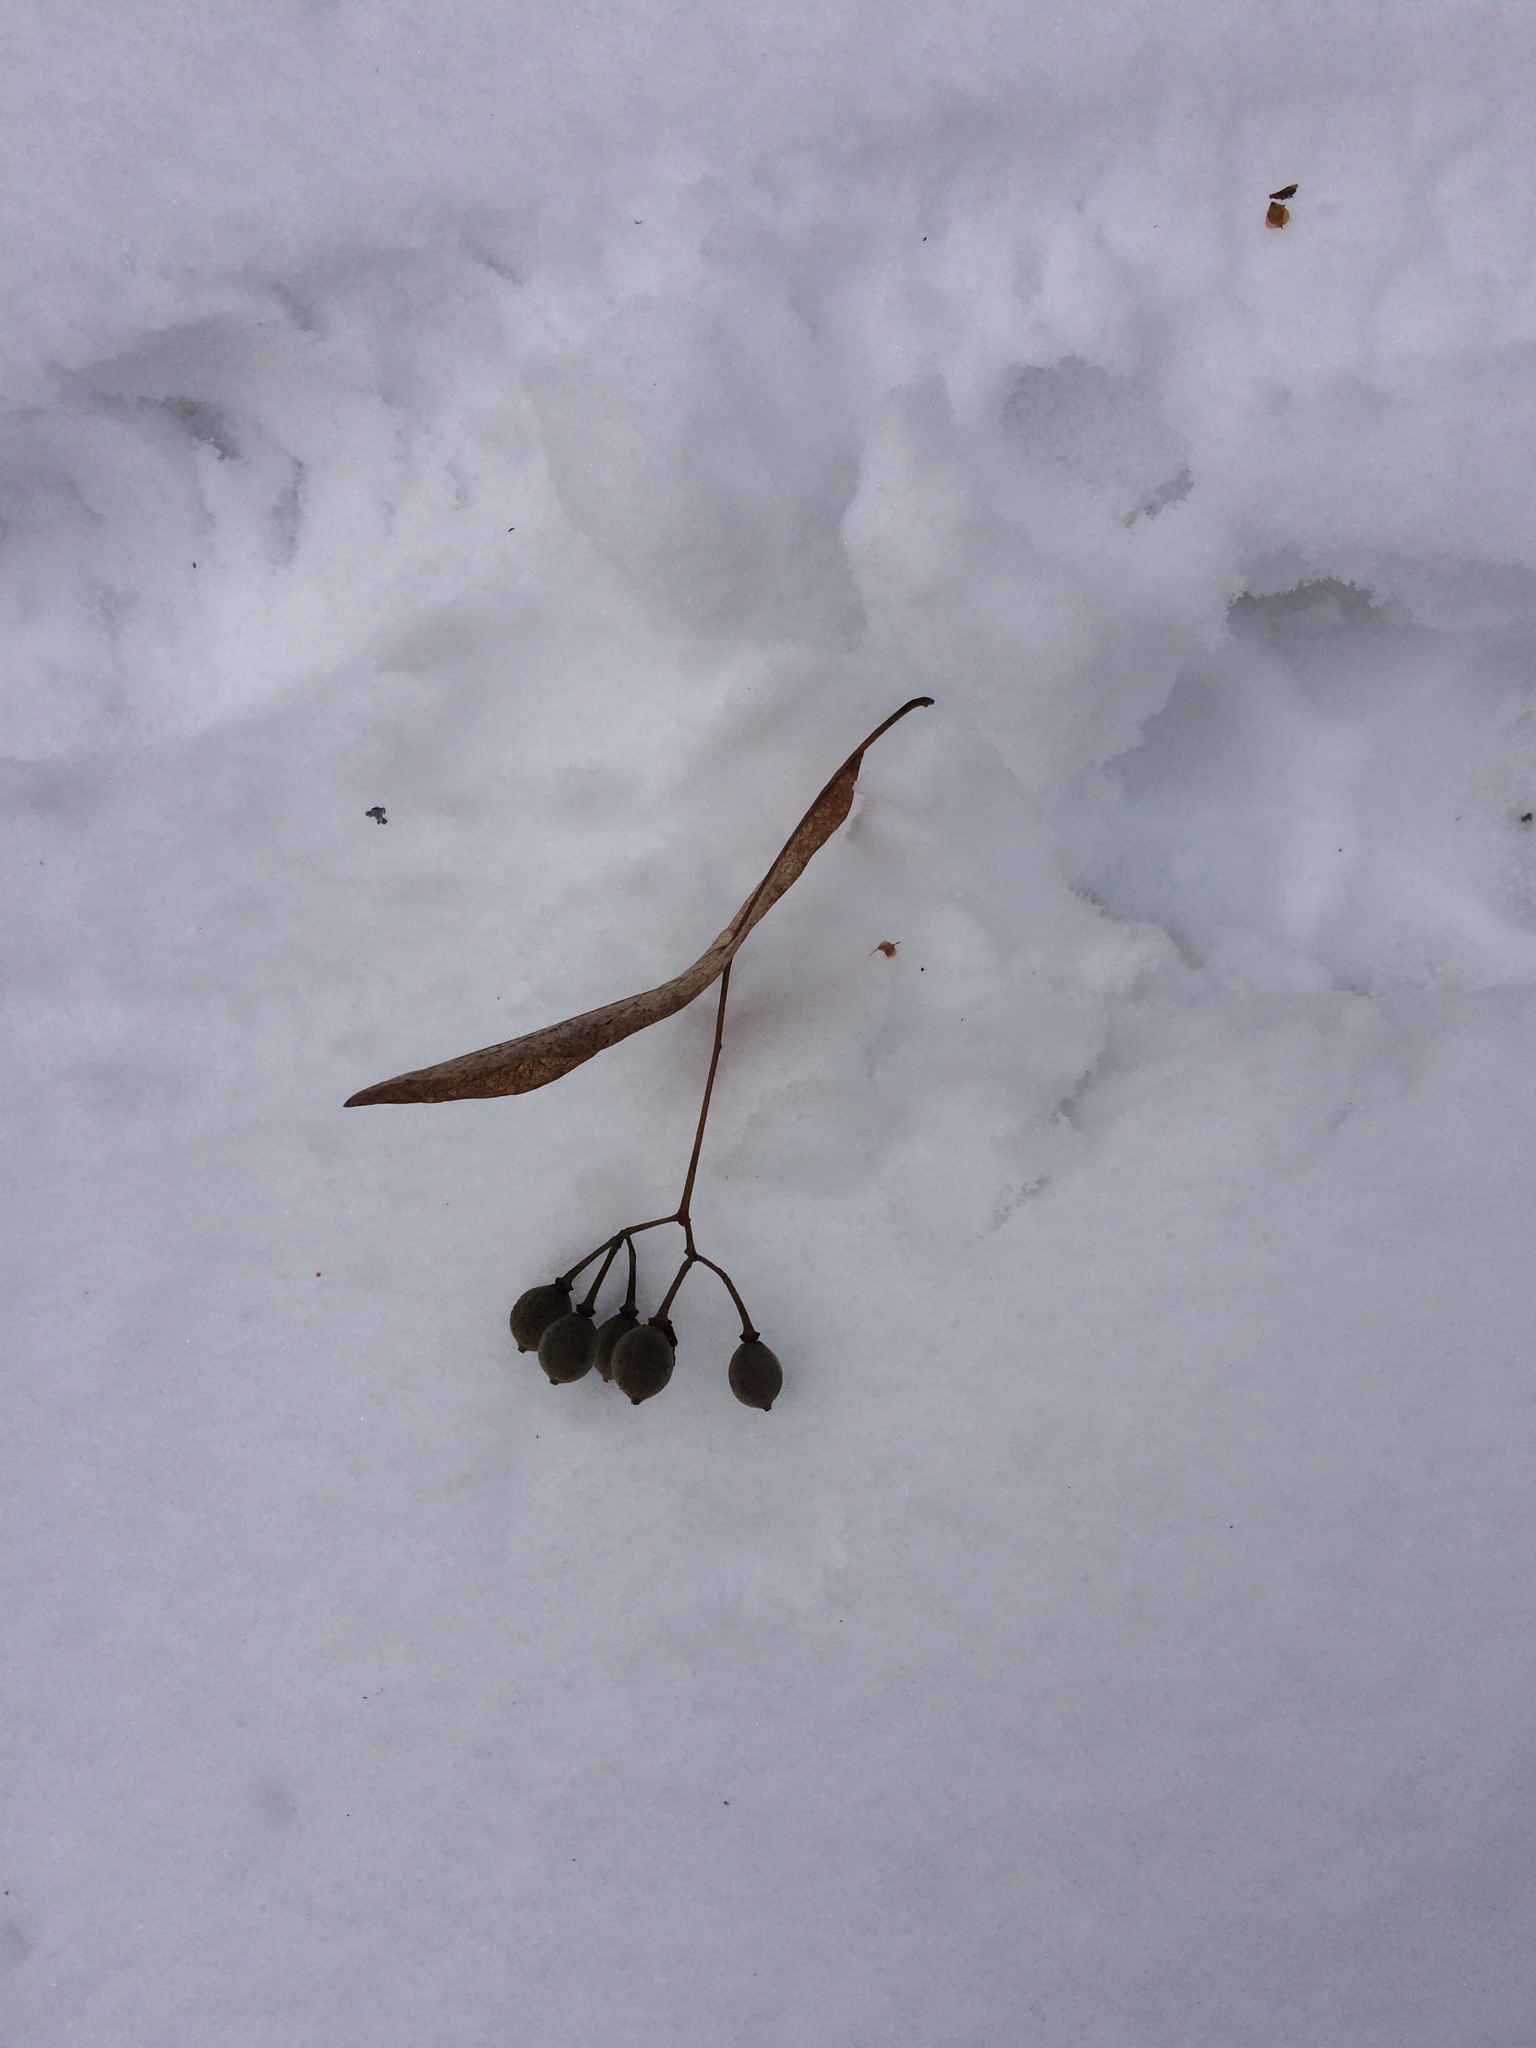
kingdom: Plantae
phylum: Tracheophyta
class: Magnoliopsida
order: Malvales
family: Malvaceae
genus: Tilia
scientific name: Tilia americana
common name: Basswood
